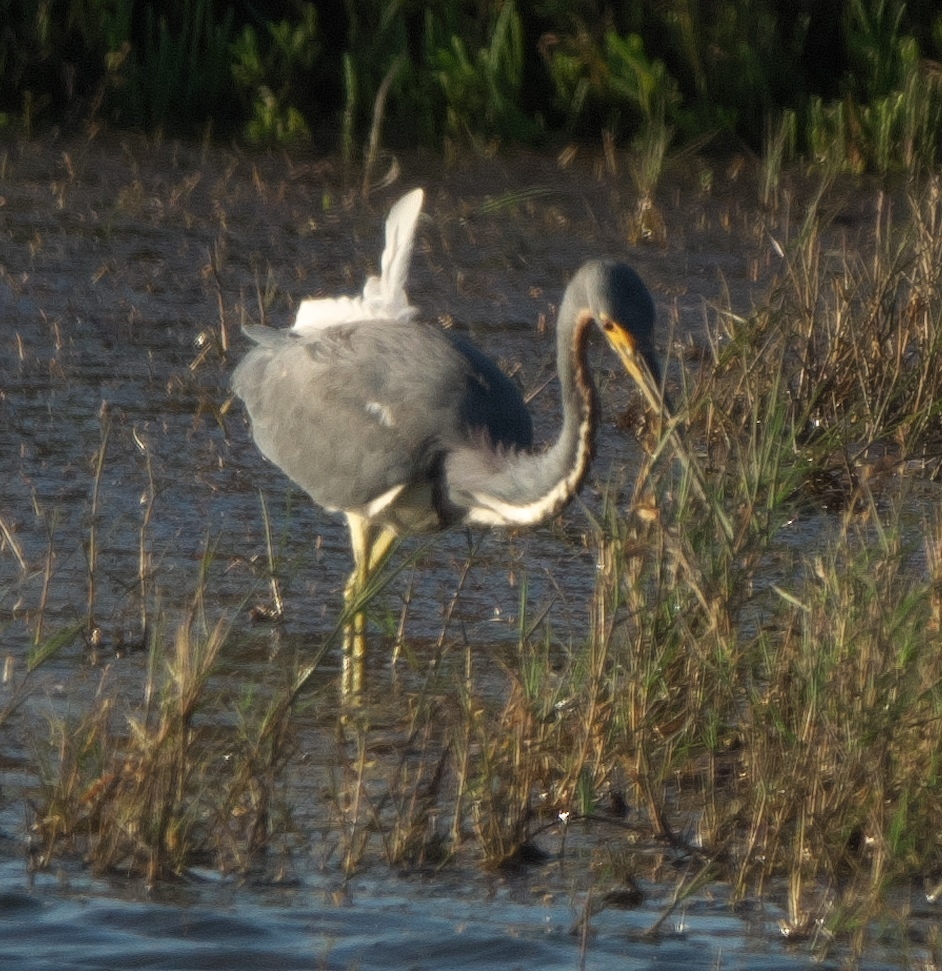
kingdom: Animalia
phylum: Chordata
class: Aves
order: Pelecaniformes
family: Ardeidae
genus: Egretta
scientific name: Egretta tricolor
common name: Tricolored heron
